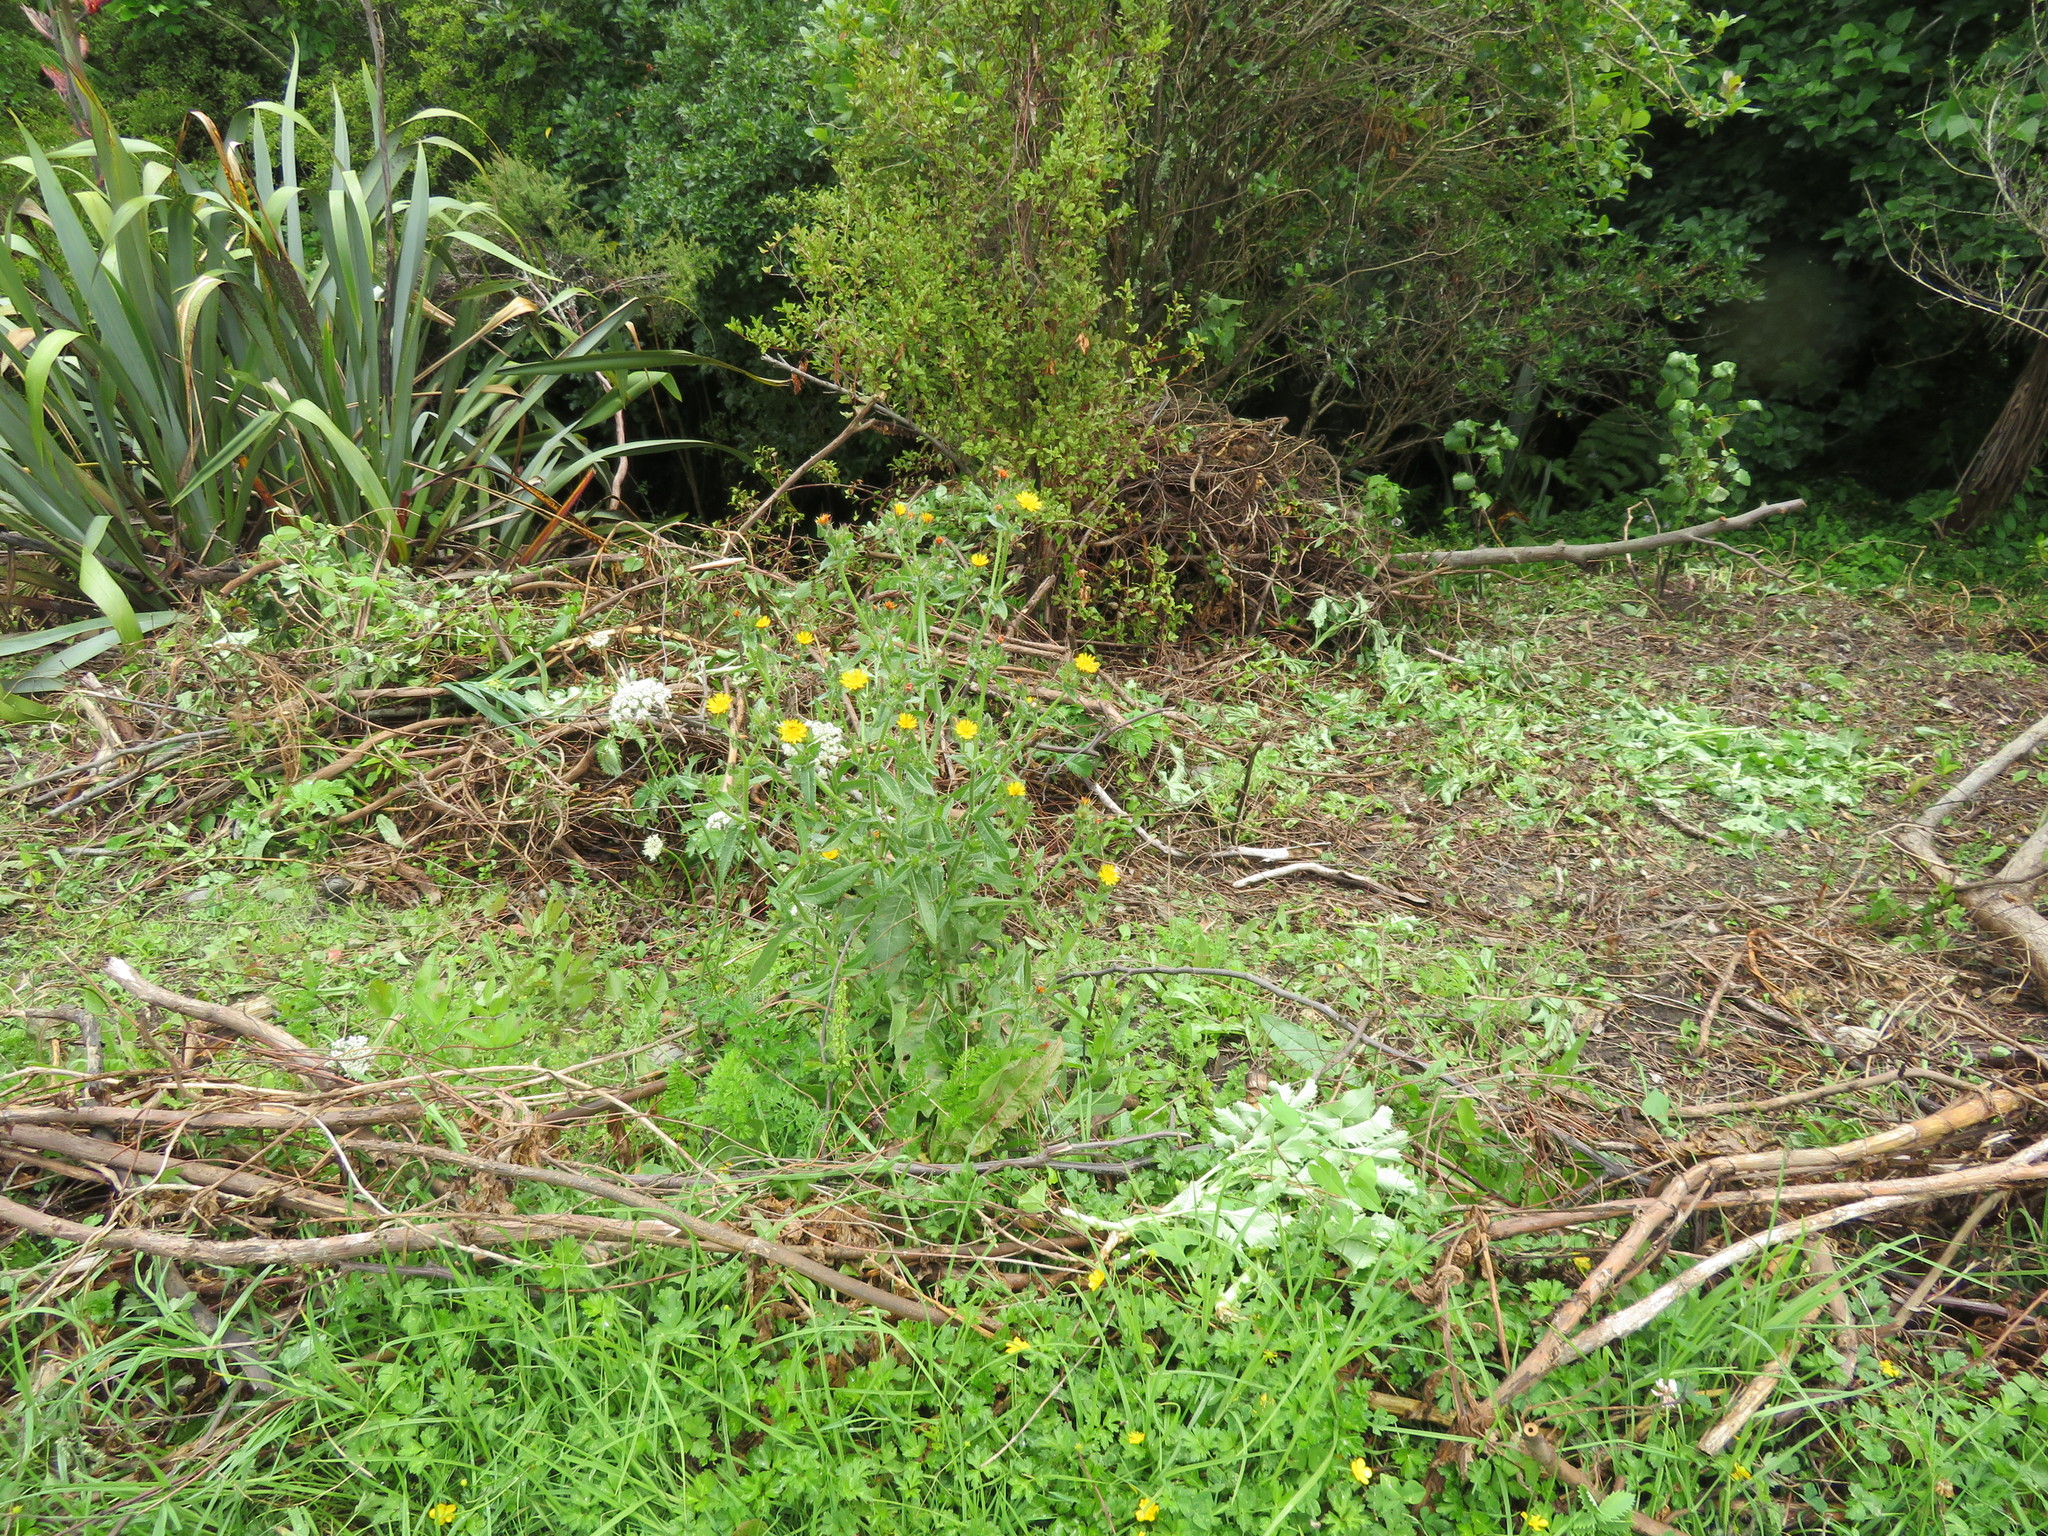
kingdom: Plantae
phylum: Tracheophyta
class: Magnoliopsida
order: Asterales
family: Asteraceae
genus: Helminthotheca
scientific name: Helminthotheca echioides
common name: Ox-tongue
